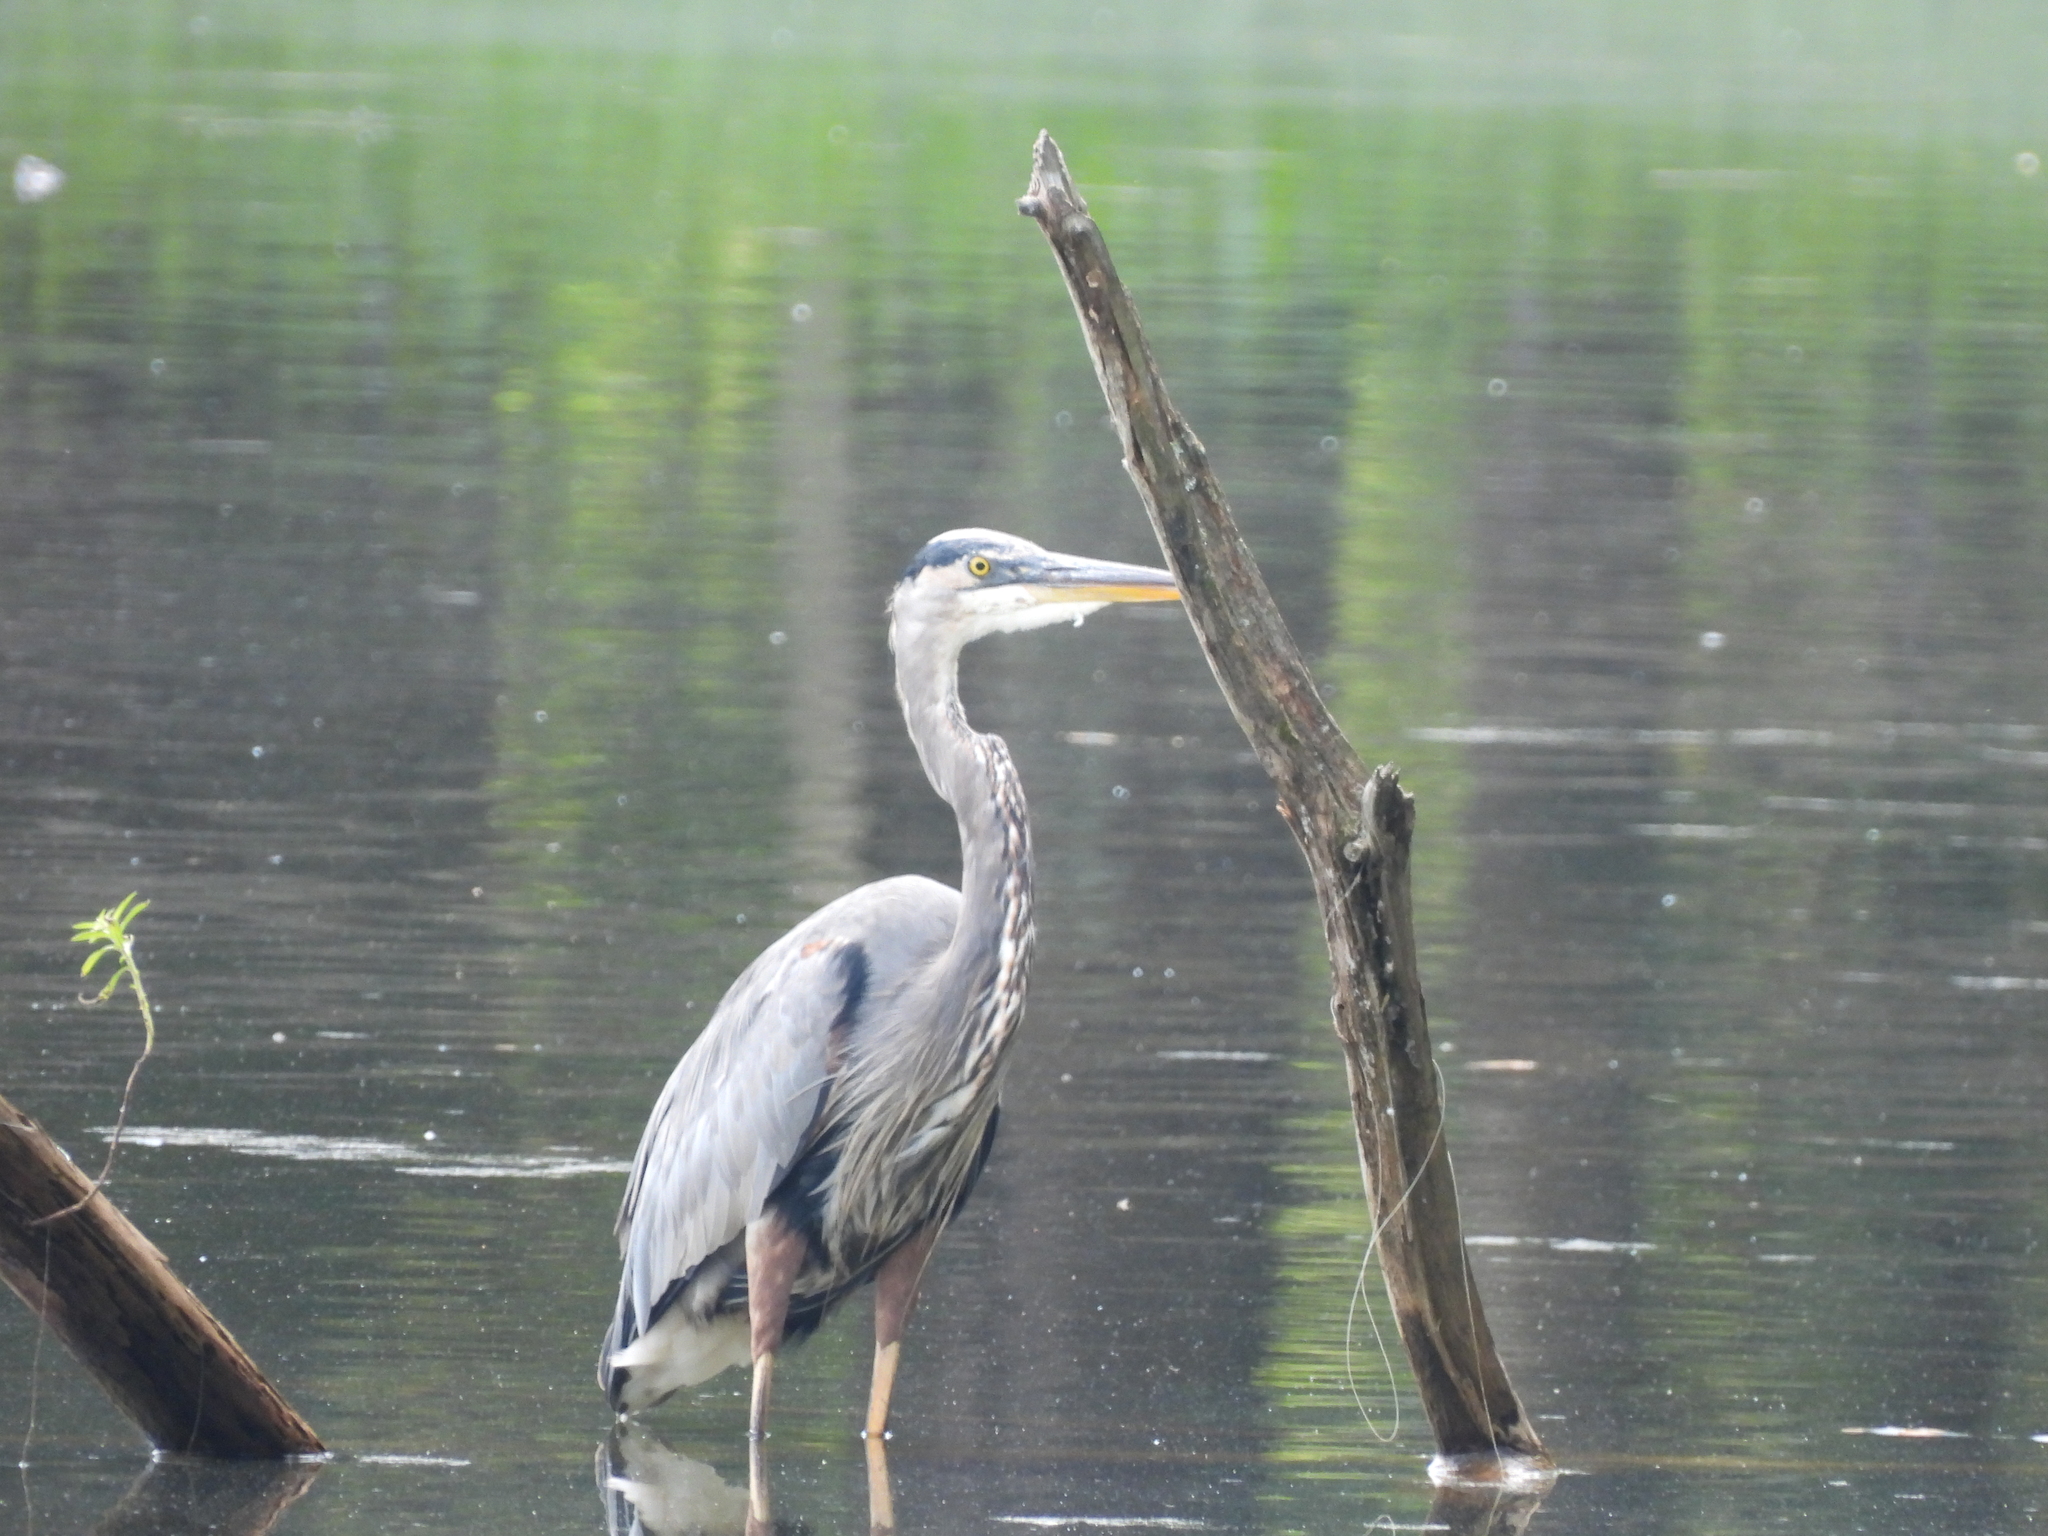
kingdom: Animalia
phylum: Chordata
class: Aves
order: Pelecaniformes
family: Ardeidae
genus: Ardea
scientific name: Ardea herodias
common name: Great blue heron
